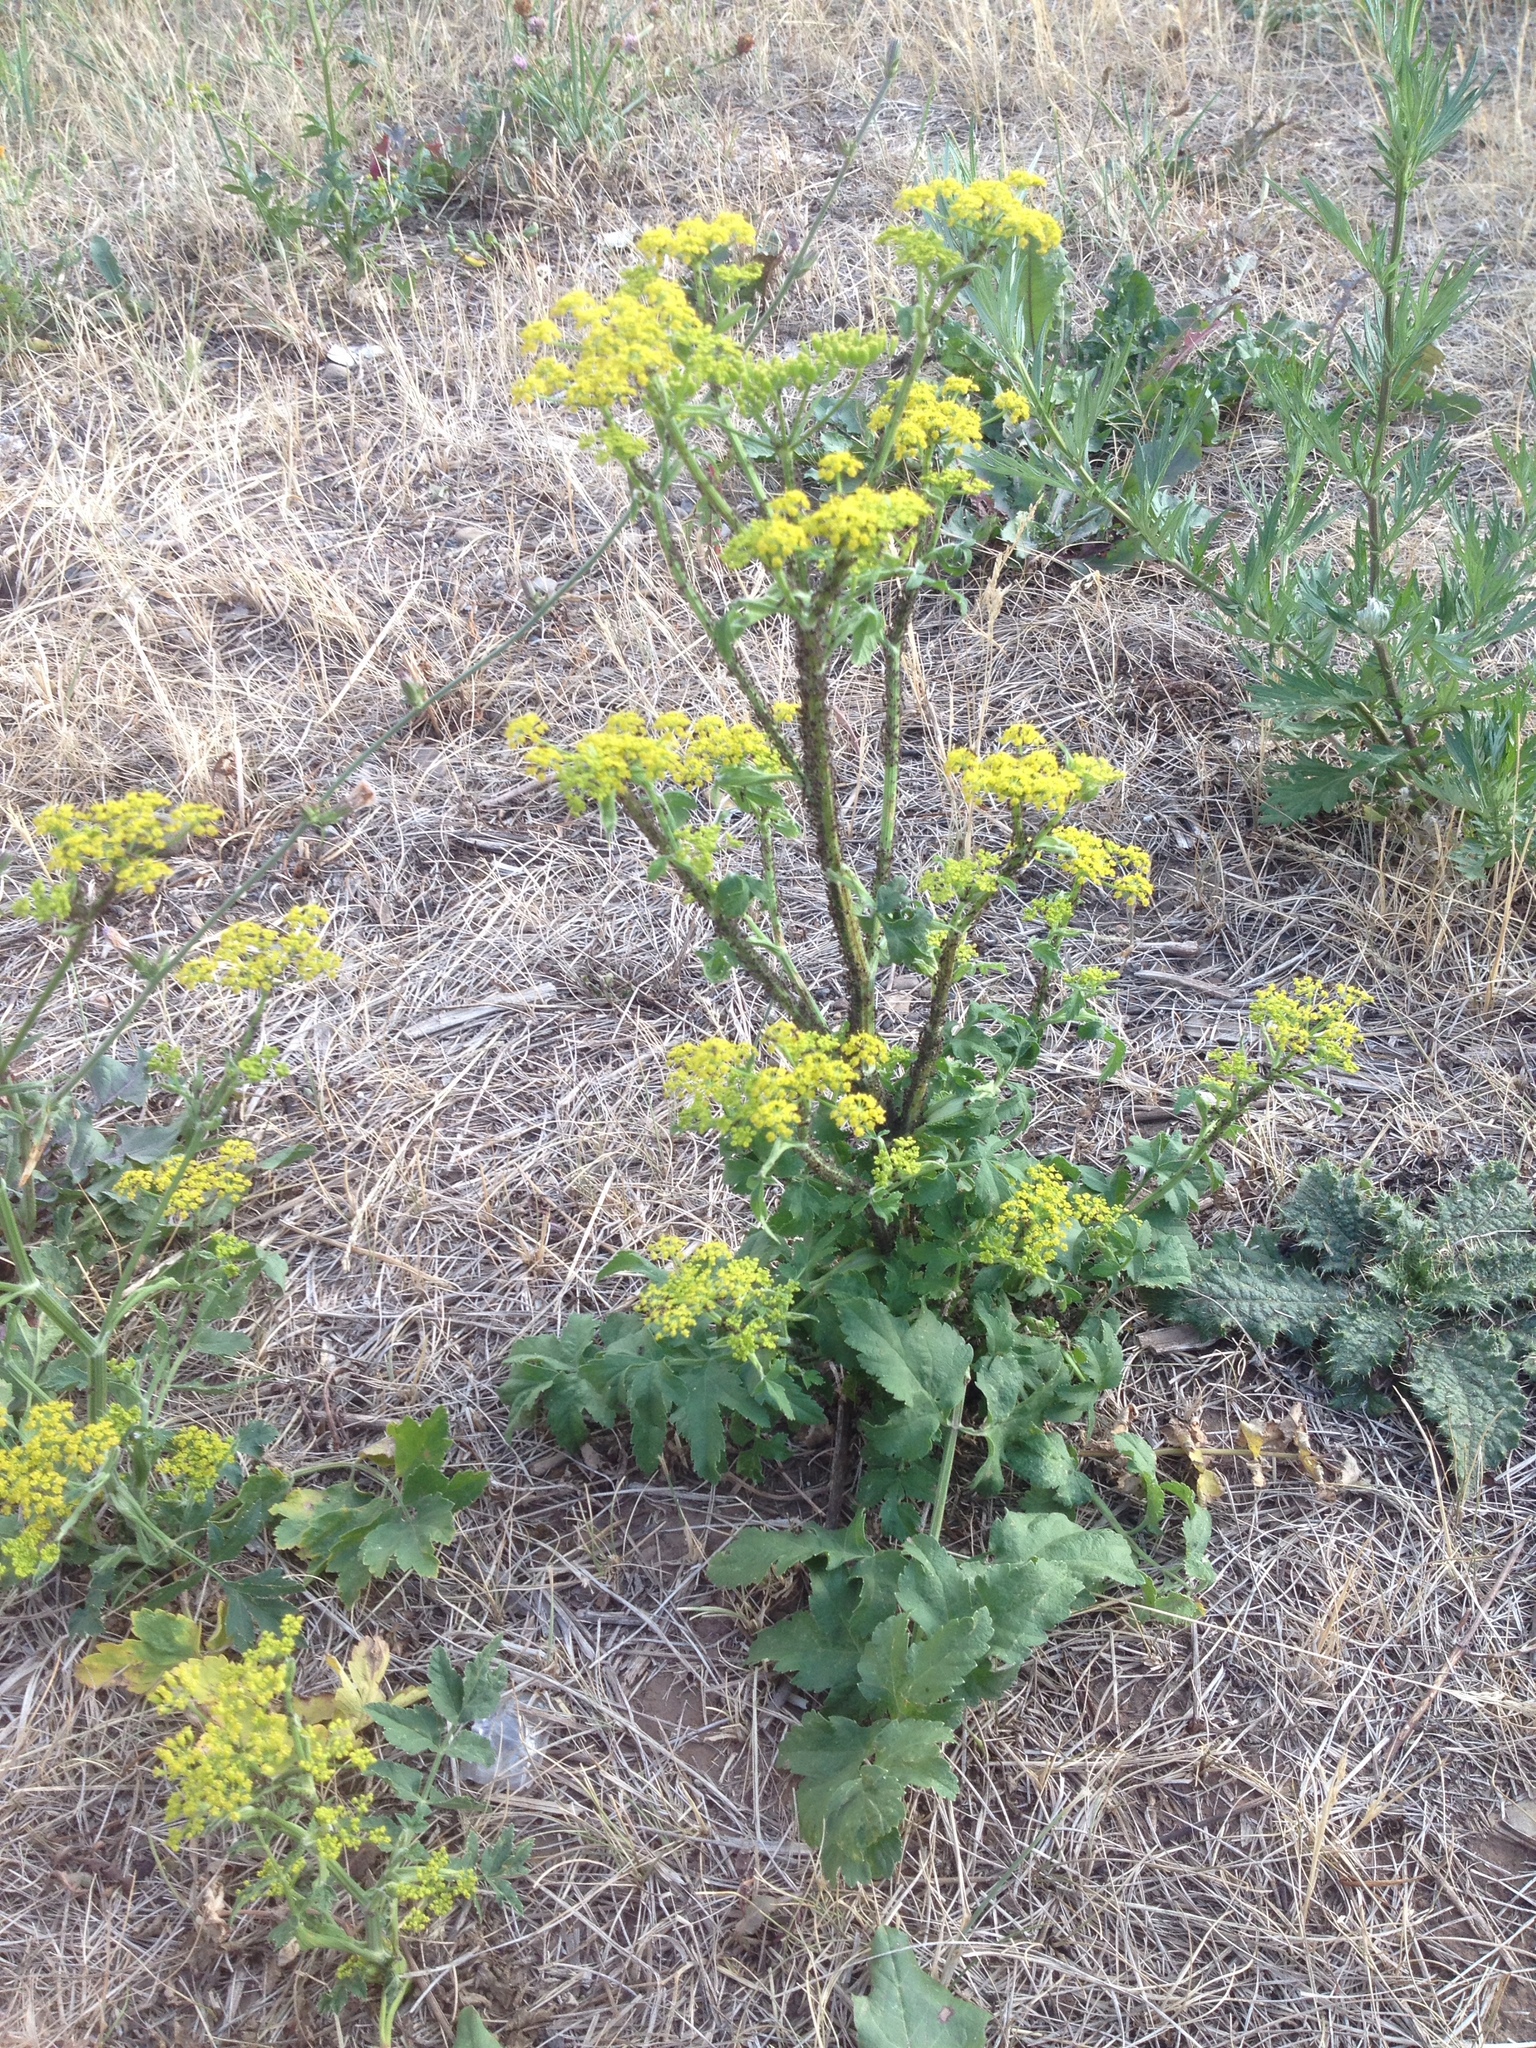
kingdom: Plantae
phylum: Tracheophyta
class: Magnoliopsida
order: Apiales
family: Apiaceae
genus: Pastinaca
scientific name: Pastinaca sativa
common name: Wild parsnip
